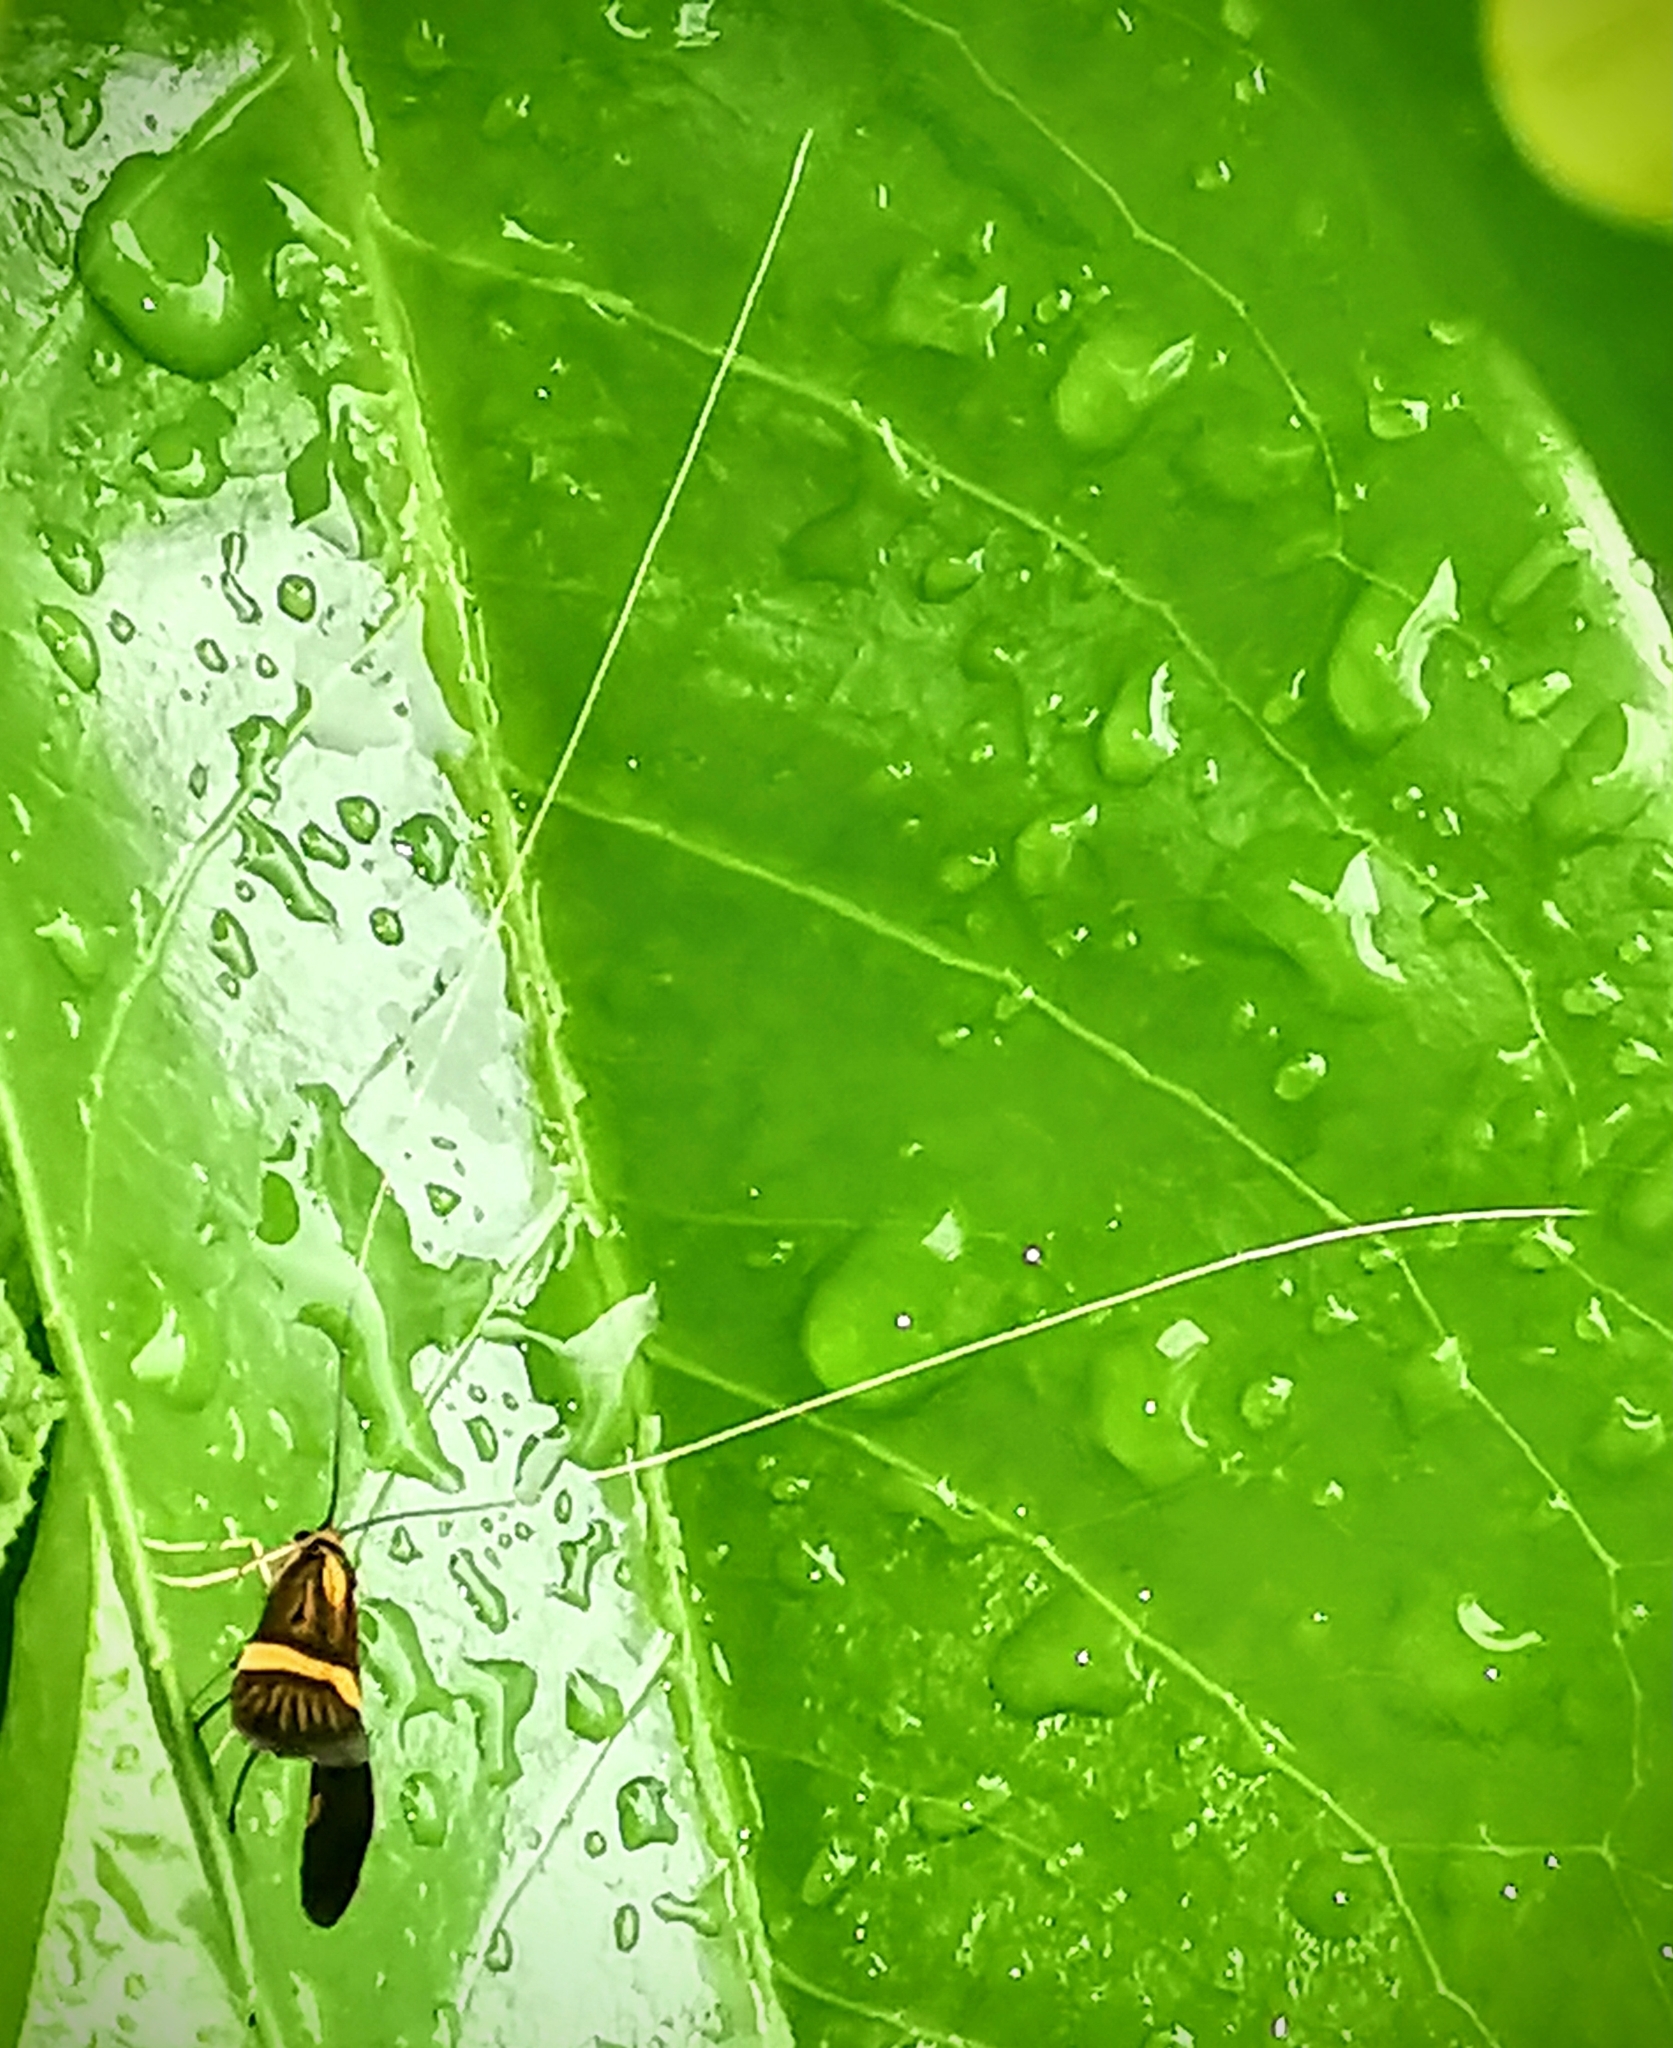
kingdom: Animalia
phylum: Arthropoda
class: Insecta
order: Lepidoptera
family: Adelidae
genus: Nemophora
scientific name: Nemophora degeerella
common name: Yellow-barred long-horn
